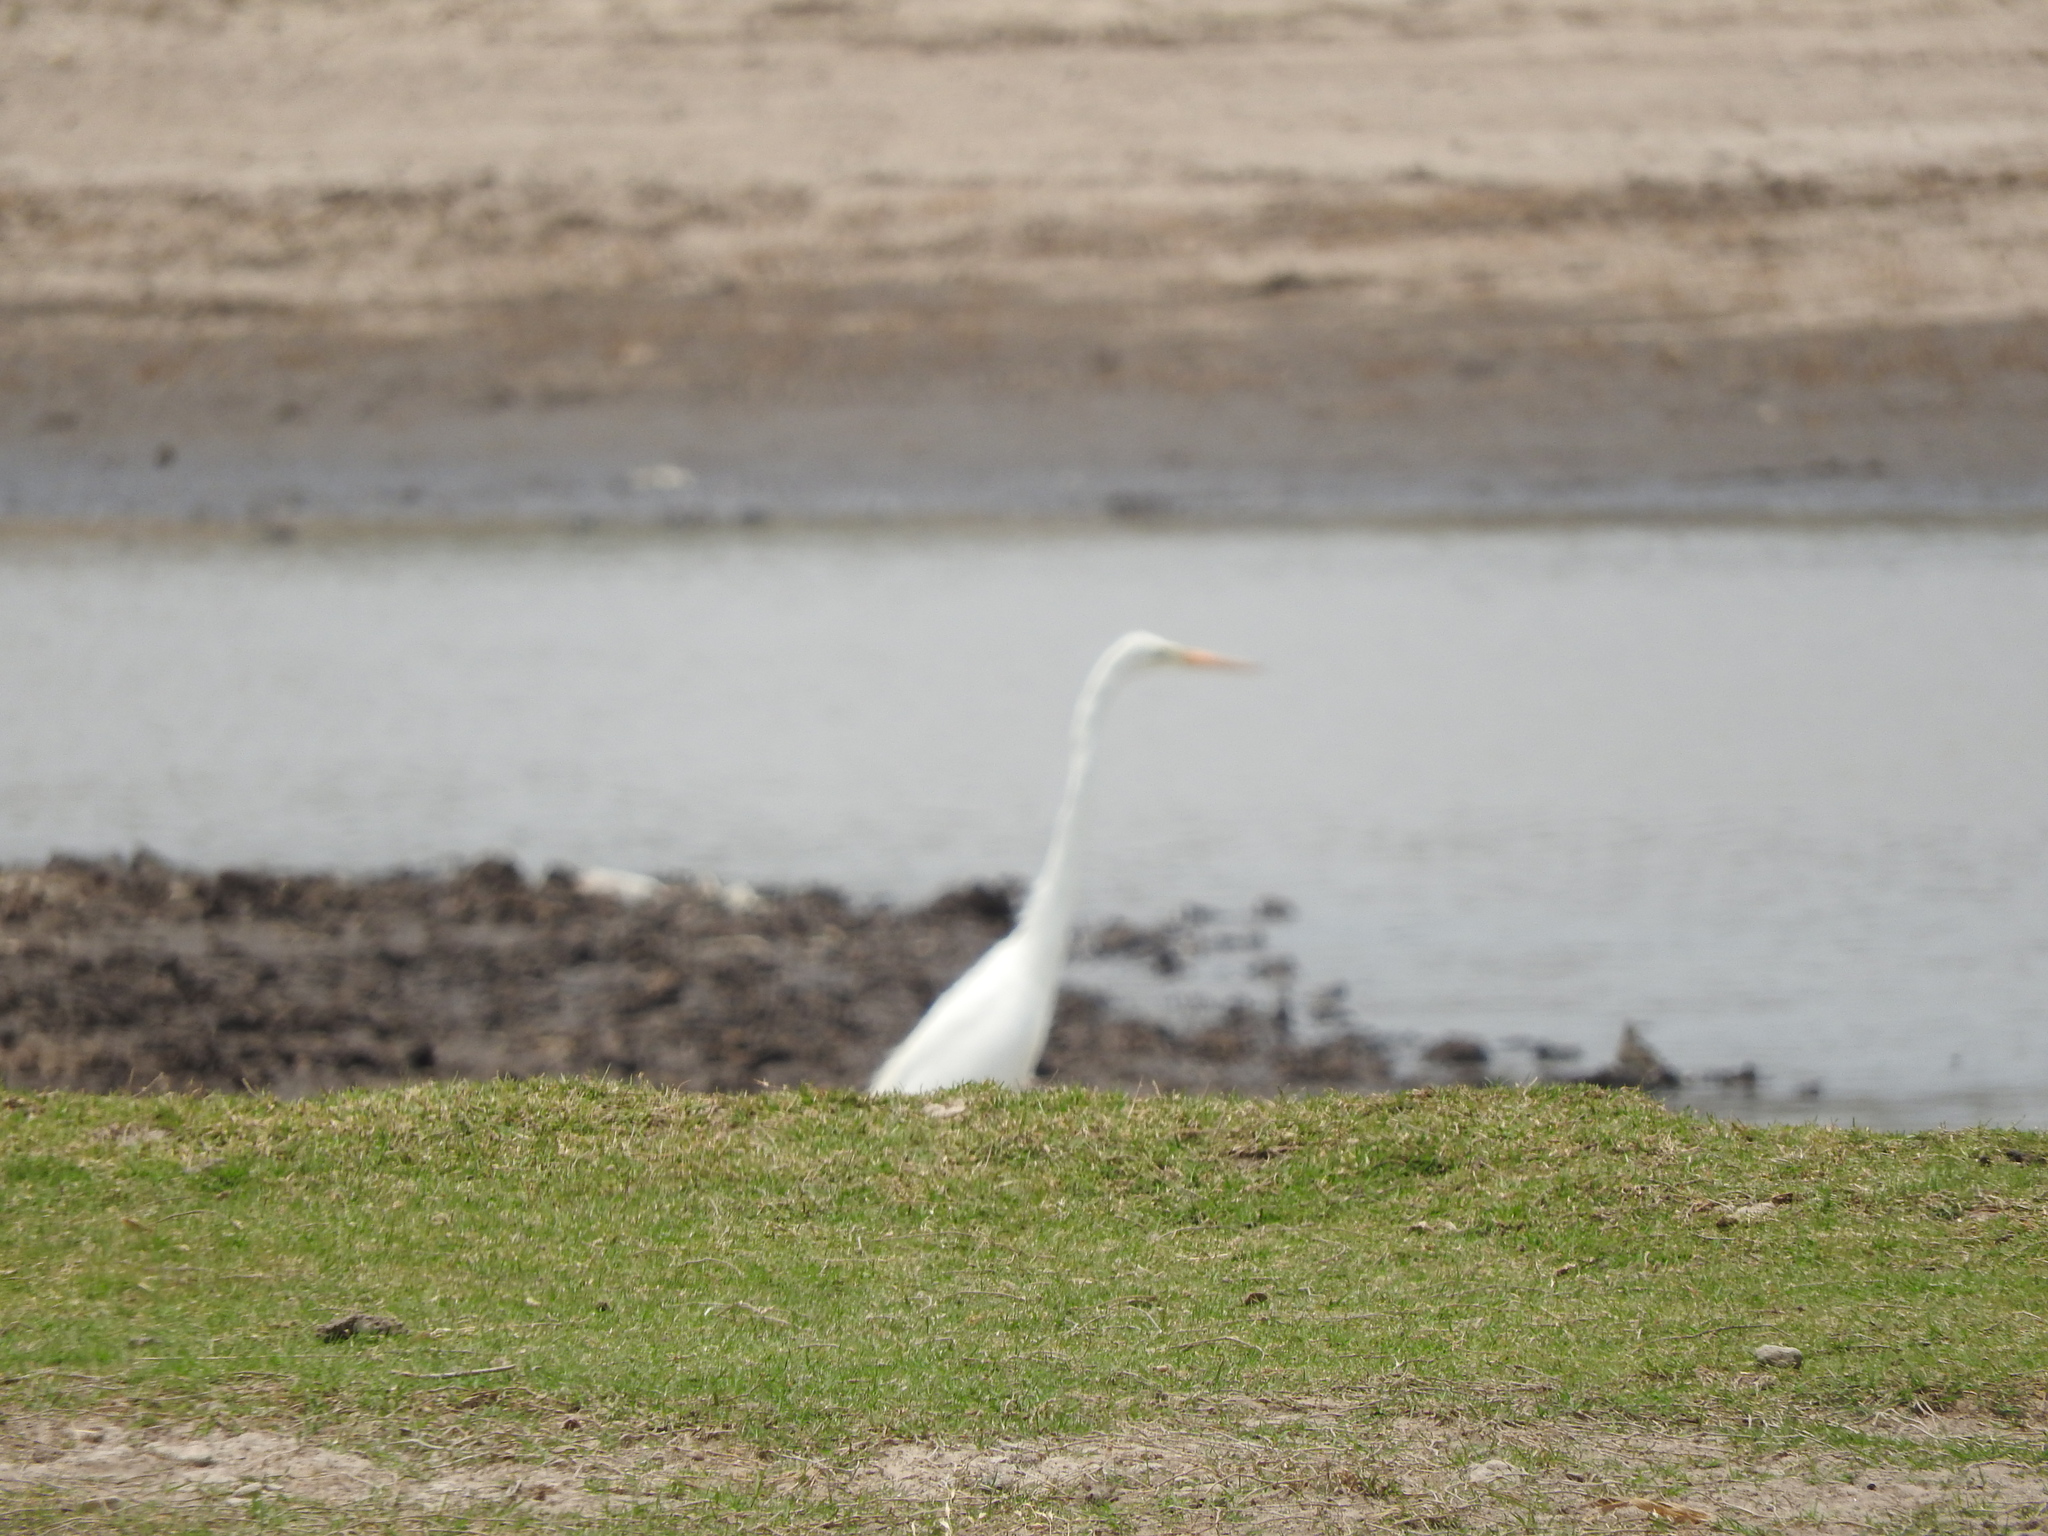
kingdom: Animalia
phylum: Chordata
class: Aves
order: Pelecaniformes
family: Ardeidae
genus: Ardea
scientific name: Ardea alba
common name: Great egret
